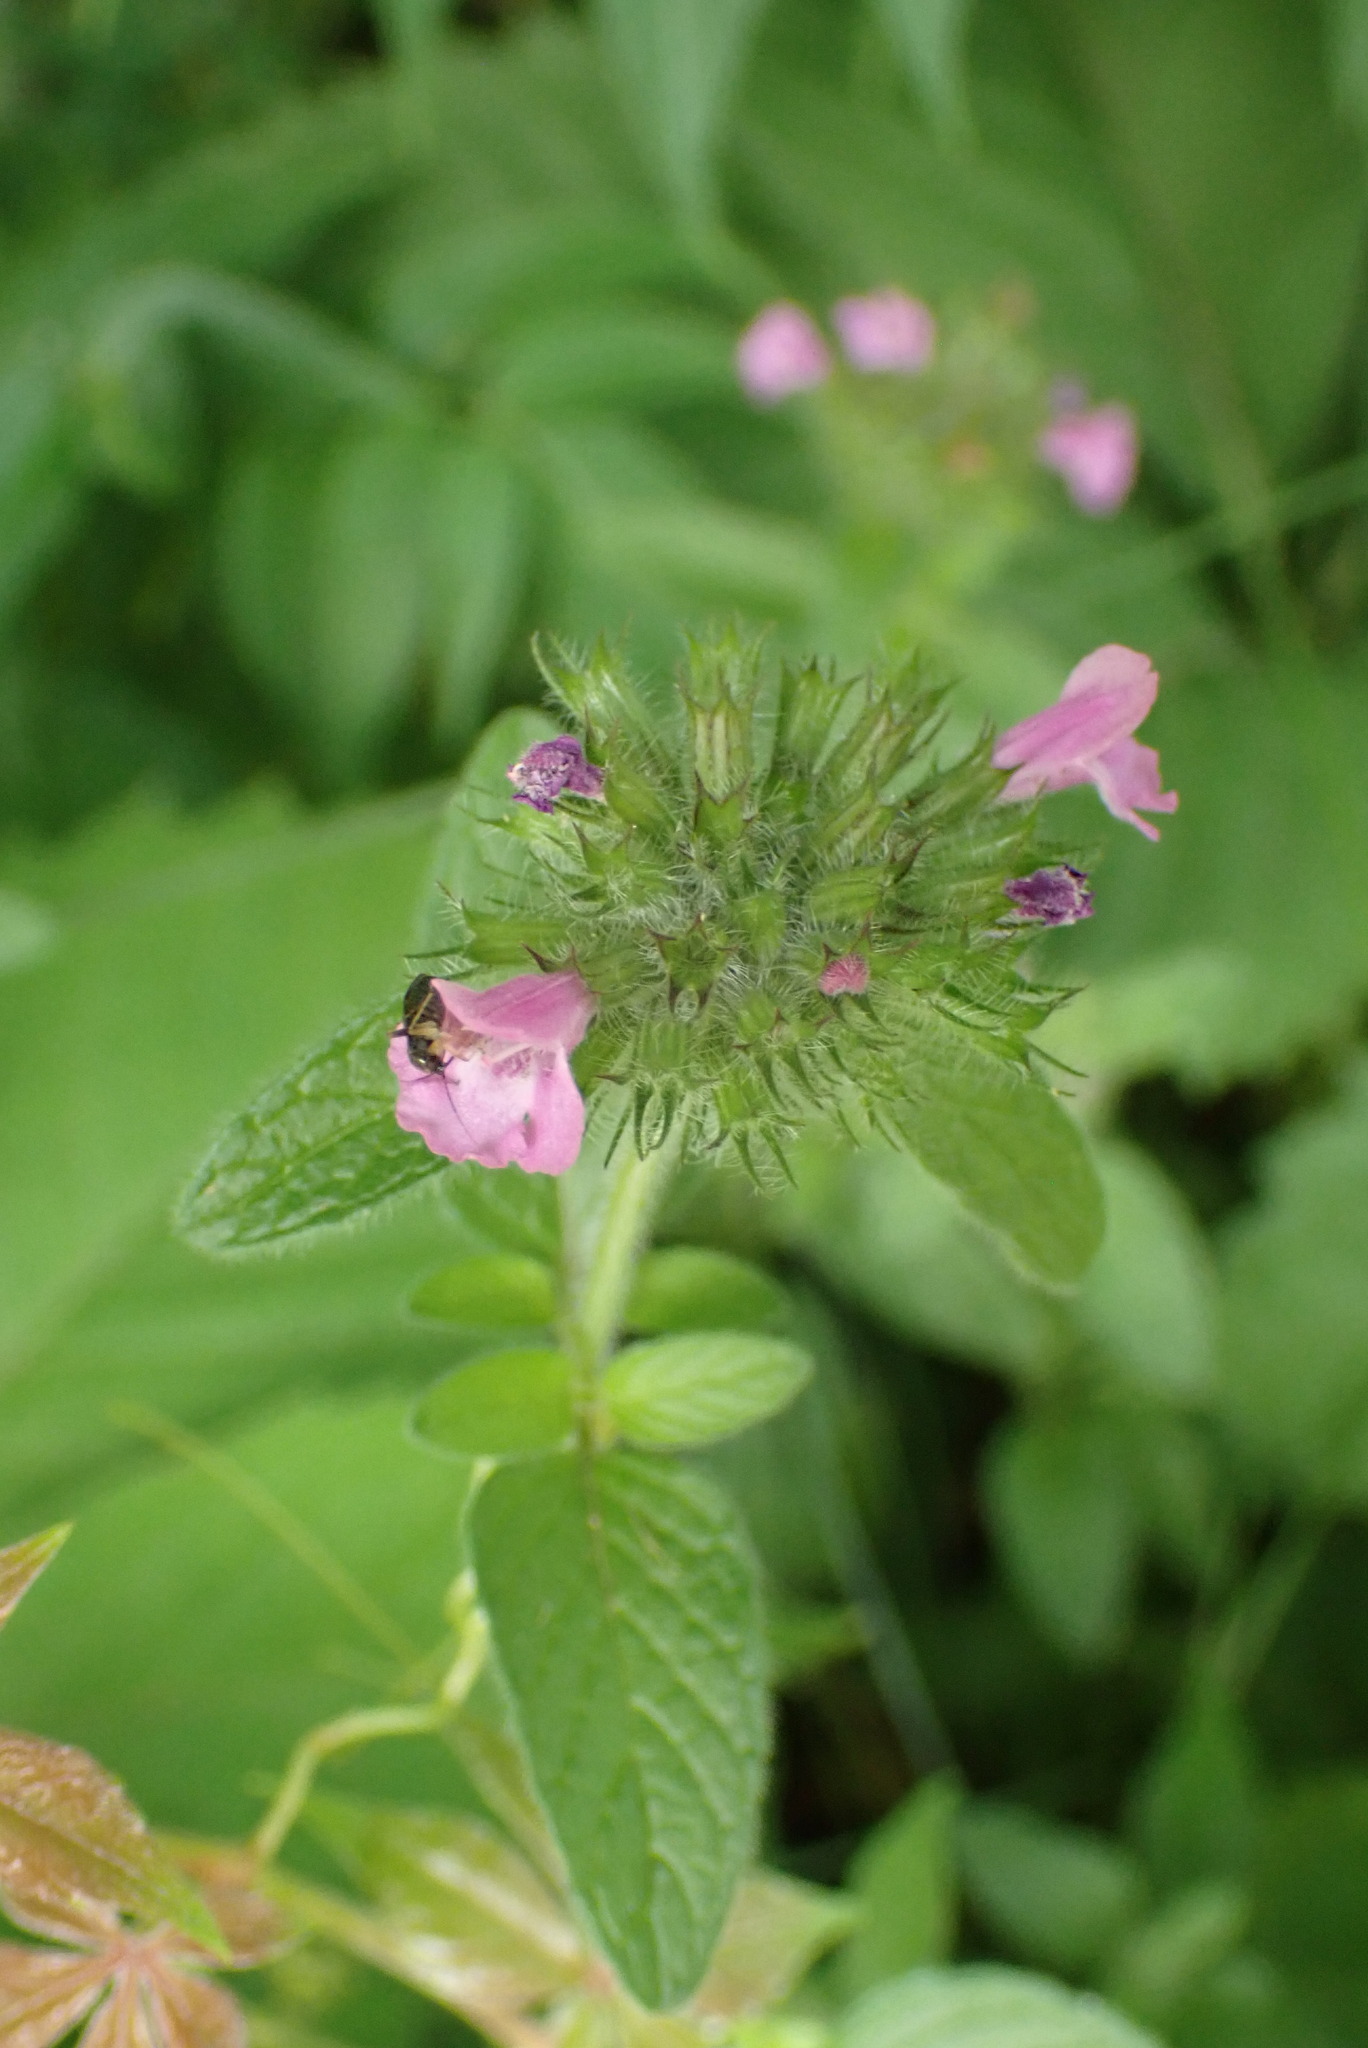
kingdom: Plantae
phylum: Tracheophyta
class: Magnoliopsida
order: Lamiales
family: Lamiaceae
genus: Clinopodium
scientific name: Clinopodium vulgare
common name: Wild basil
